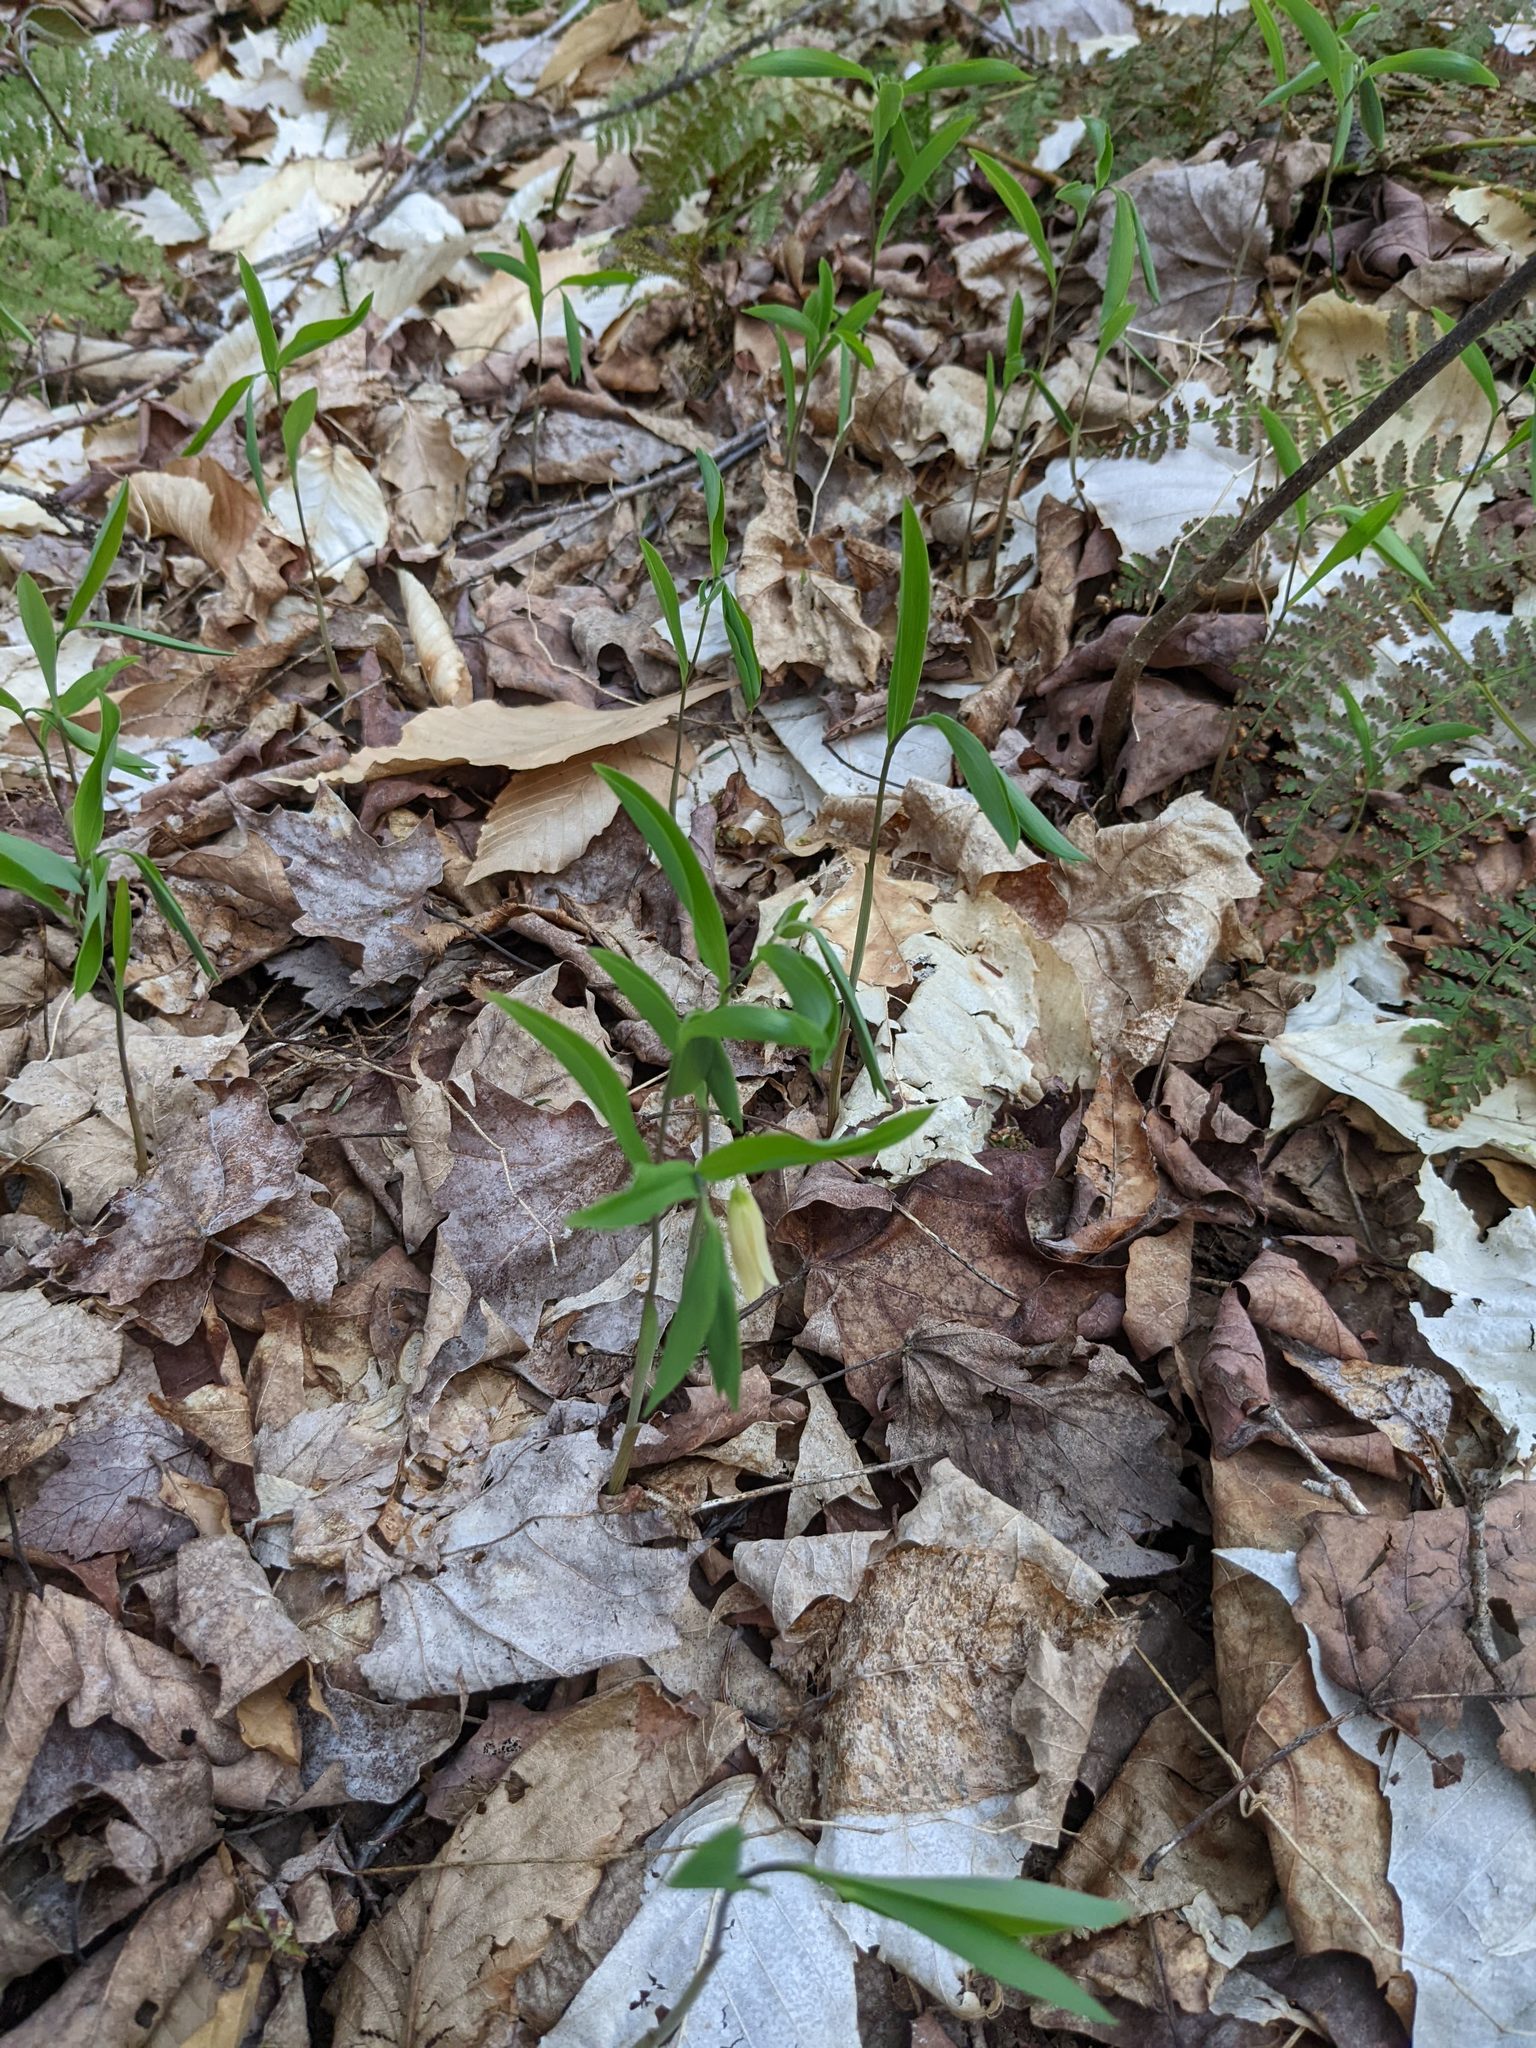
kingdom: Plantae
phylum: Tracheophyta
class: Liliopsida
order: Liliales
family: Colchicaceae
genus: Uvularia
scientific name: Uvularia sessilifolia
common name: Straw-lily
